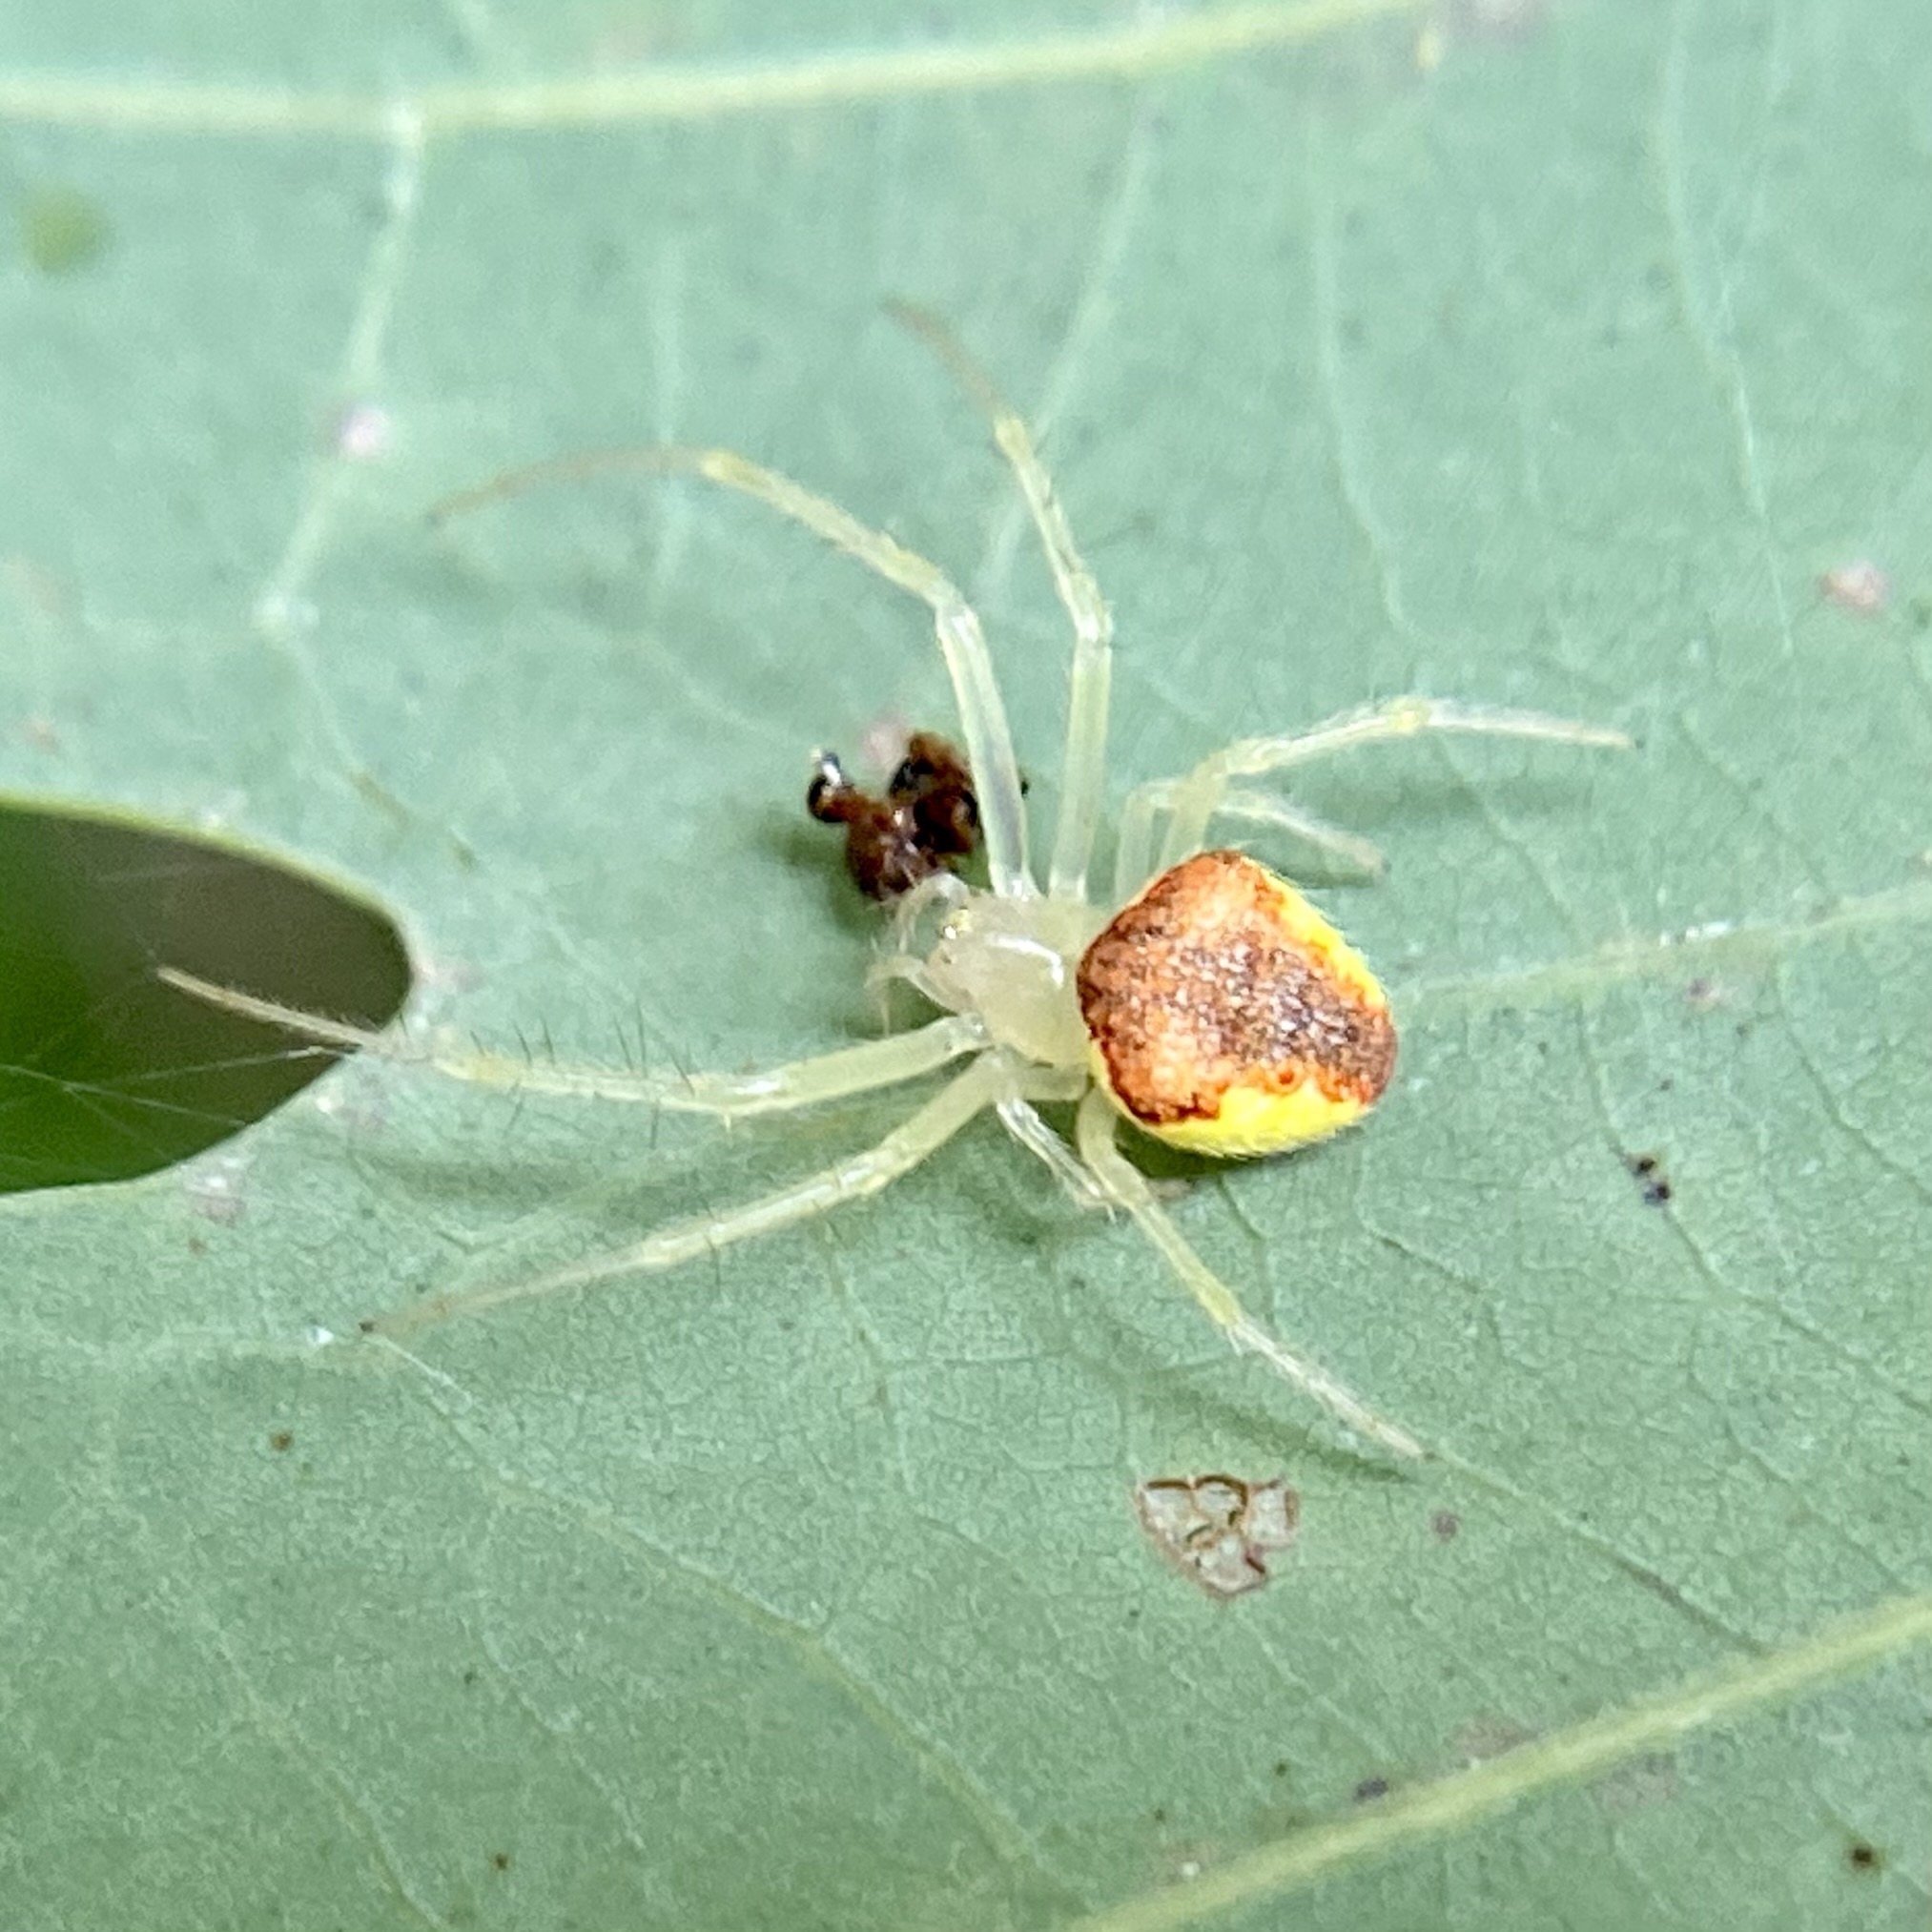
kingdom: Animalia
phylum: Arthropoda
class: Arachnida
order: Araneae
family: Araneidae
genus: Araneus
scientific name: Araneus alboventris
